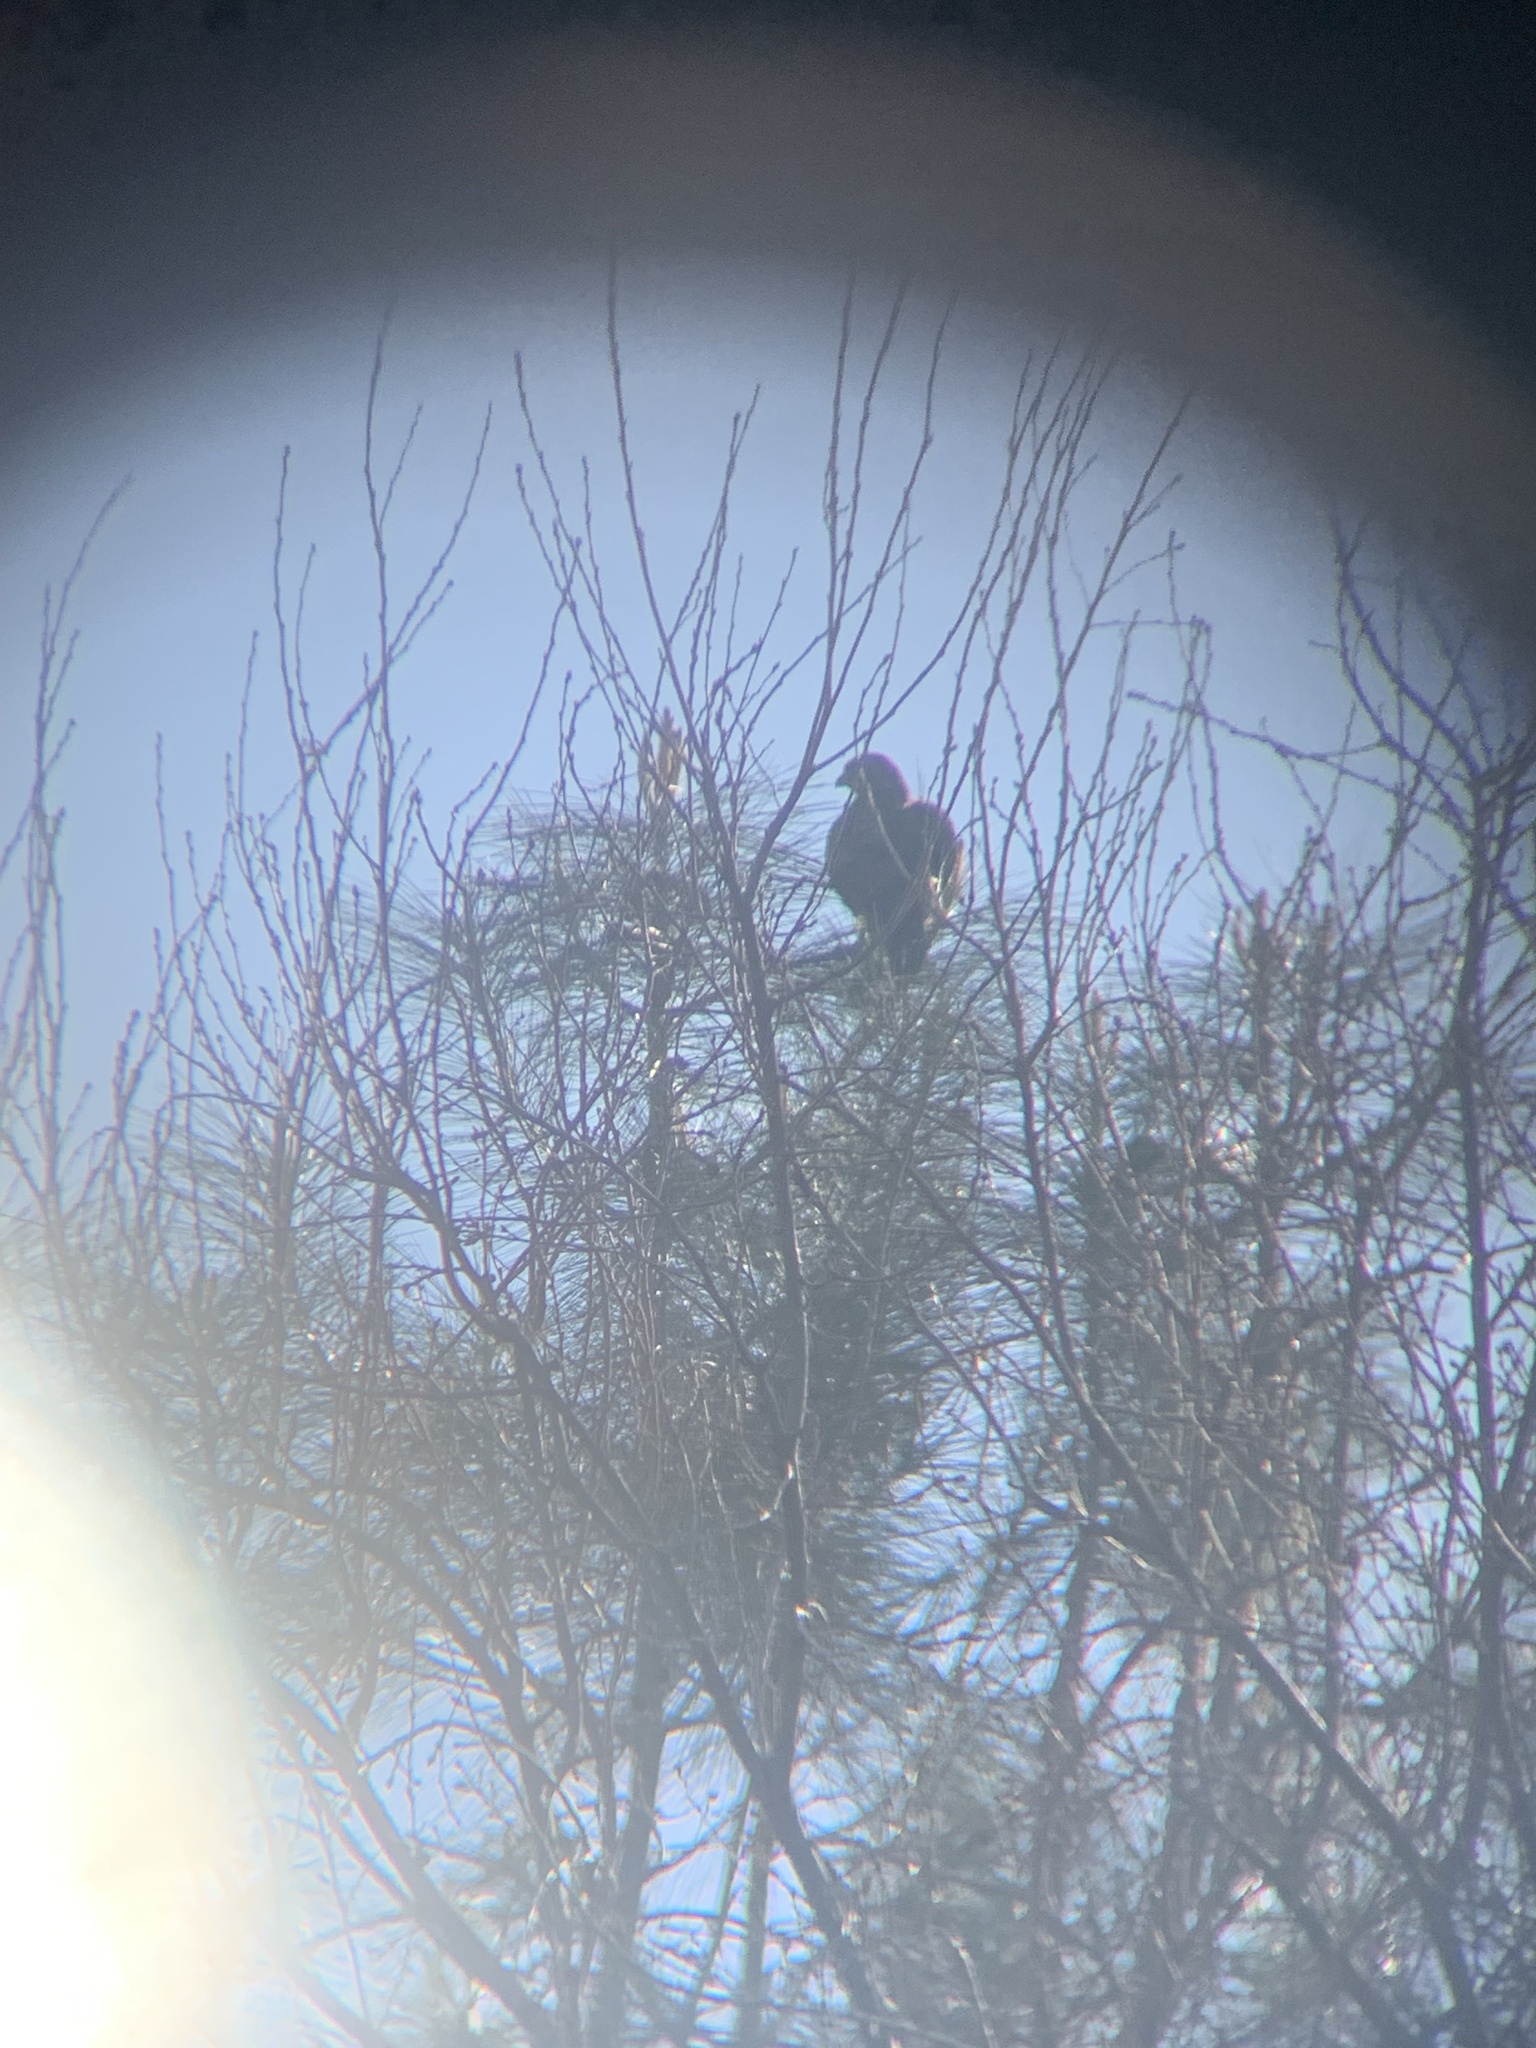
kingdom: Animalia
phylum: Chordata
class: Aves
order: Accipitriformes
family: Accipitridae
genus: Buteo
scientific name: Buteo jamaicensis
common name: Red-tailed hawk
